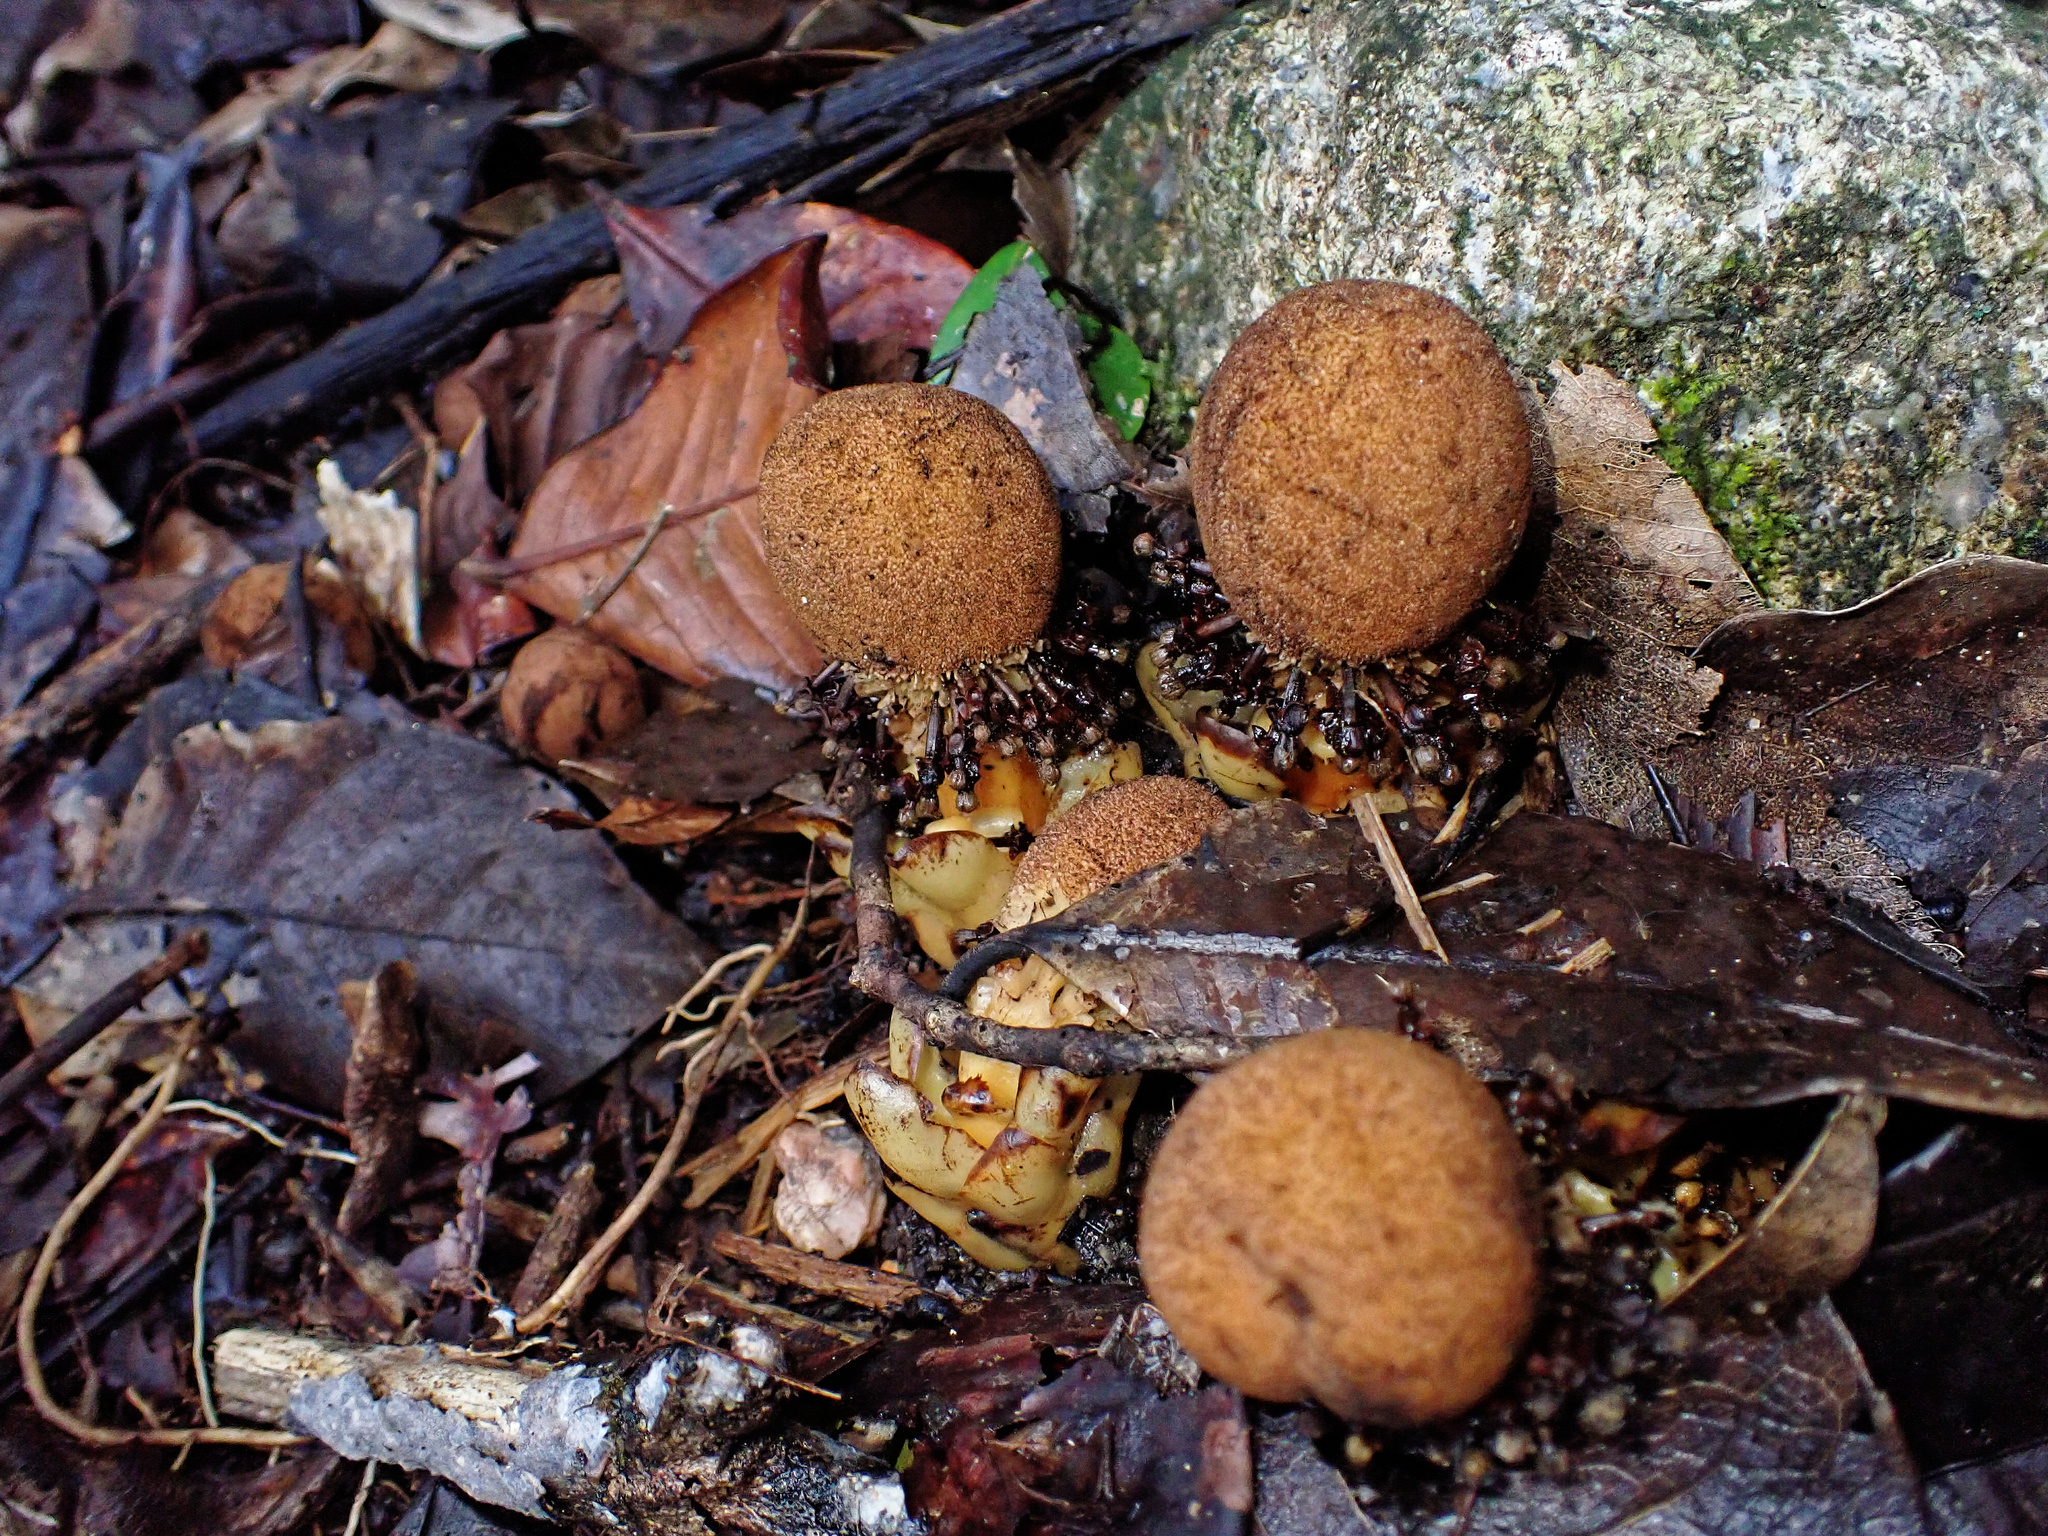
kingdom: Plantae
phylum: Tracheophyta
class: Magnoliopsida
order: Santalales
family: Balanophoraceae
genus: Balanophora
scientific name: Balanophora fungosa
